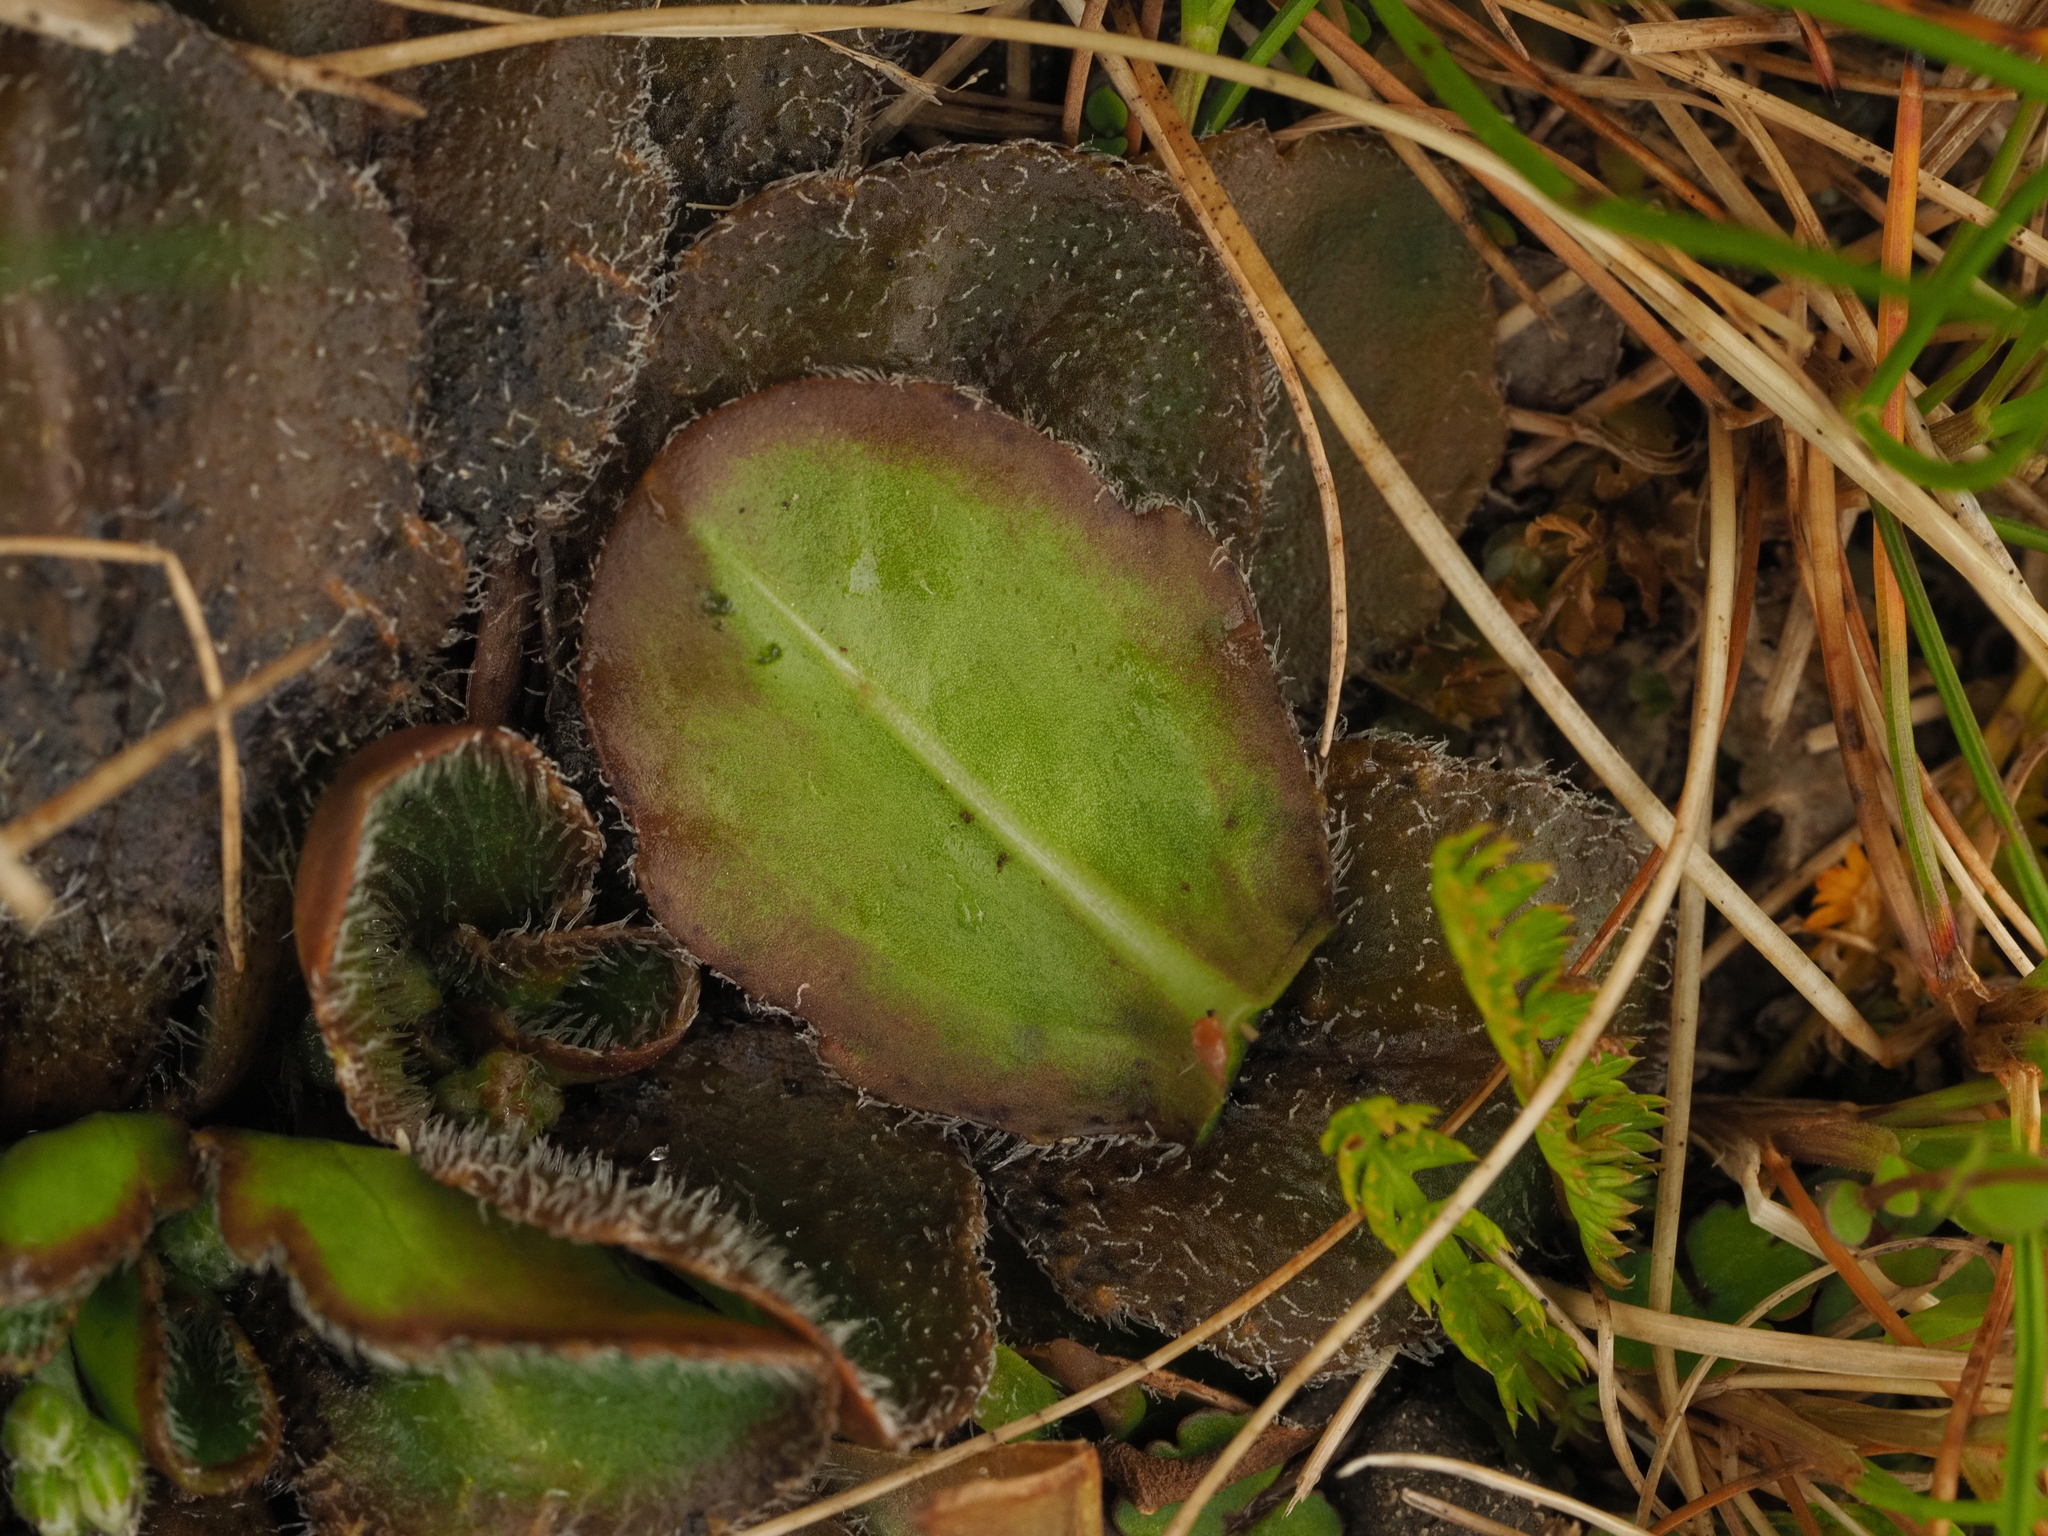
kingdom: Plantae
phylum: Tracheophyta
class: Magnoliopsida
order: Lamiales
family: Plantaginaceae
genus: Plantago
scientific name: Plantago spathulata
